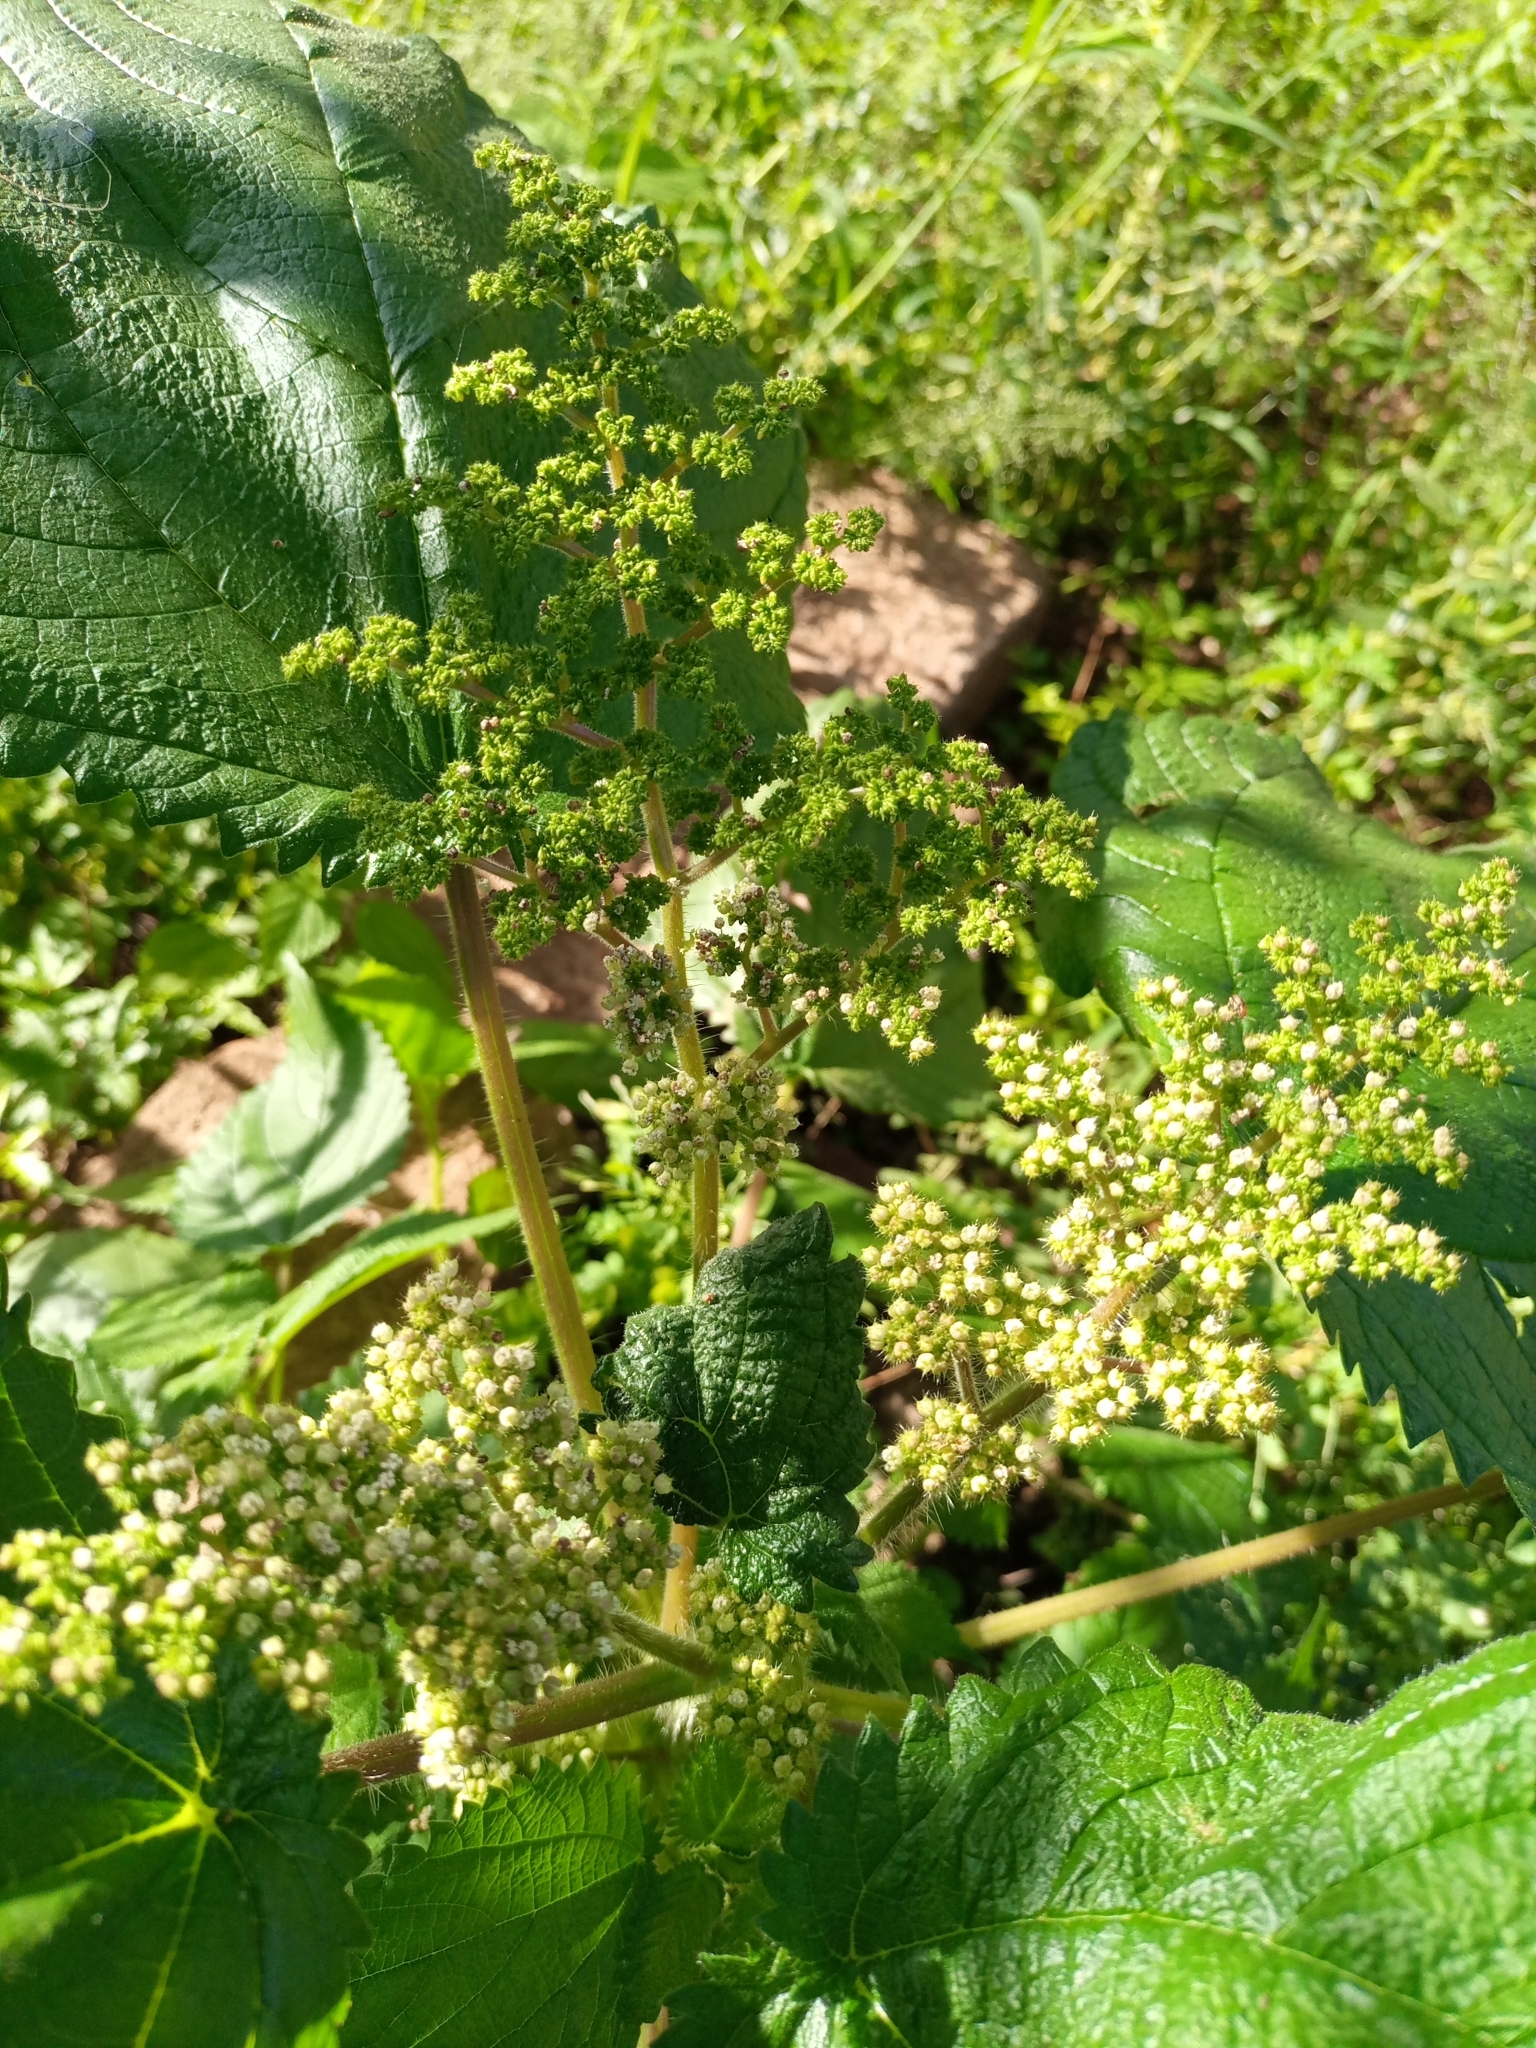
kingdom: Plantae
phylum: Tracheophyta
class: Magnoliopsida
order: Rosales
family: Urticaceae
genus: Laportea
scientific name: Laportea aestuans
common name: West indian woodnettle
